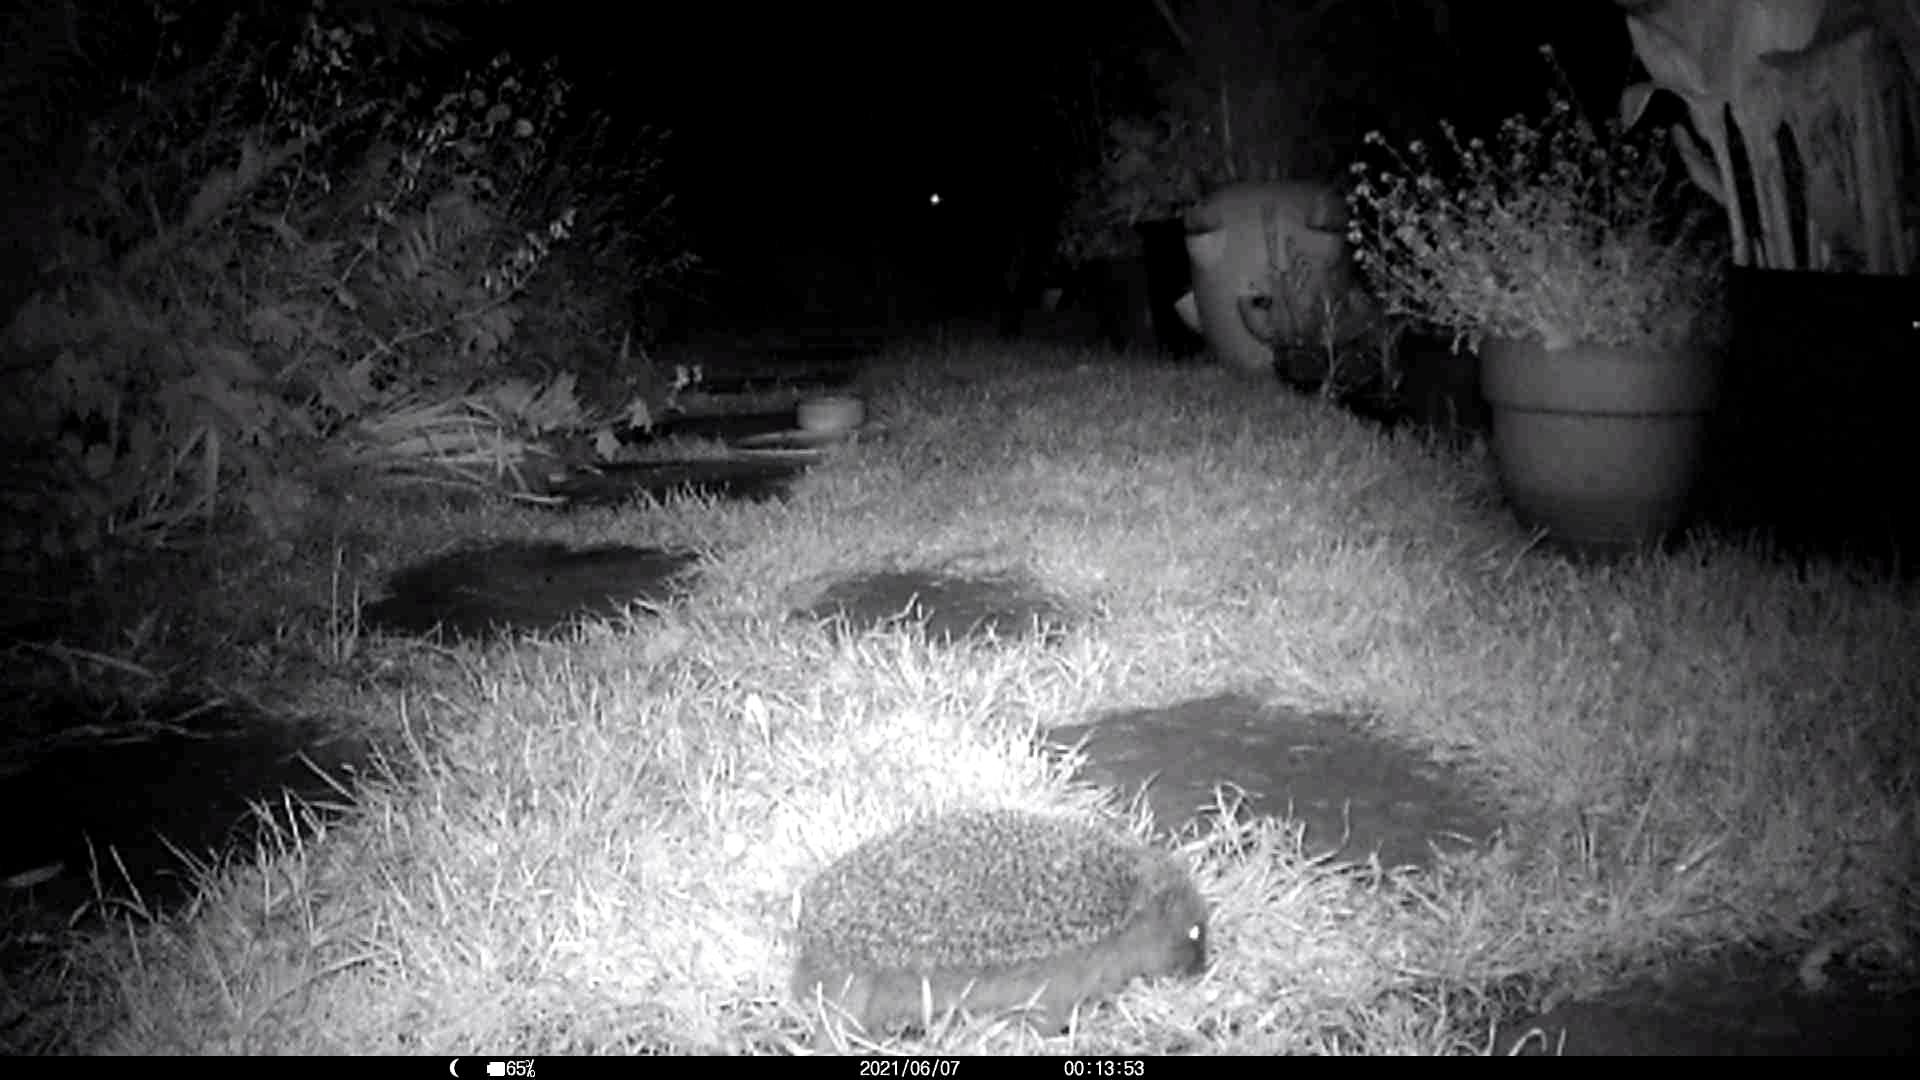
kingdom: Animalia
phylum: Chordata
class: Mammalia
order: Erinaceomorpha
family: Erinaceidae
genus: Erinaceus
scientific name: Erinaceus europaeus
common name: West european hedgehog
